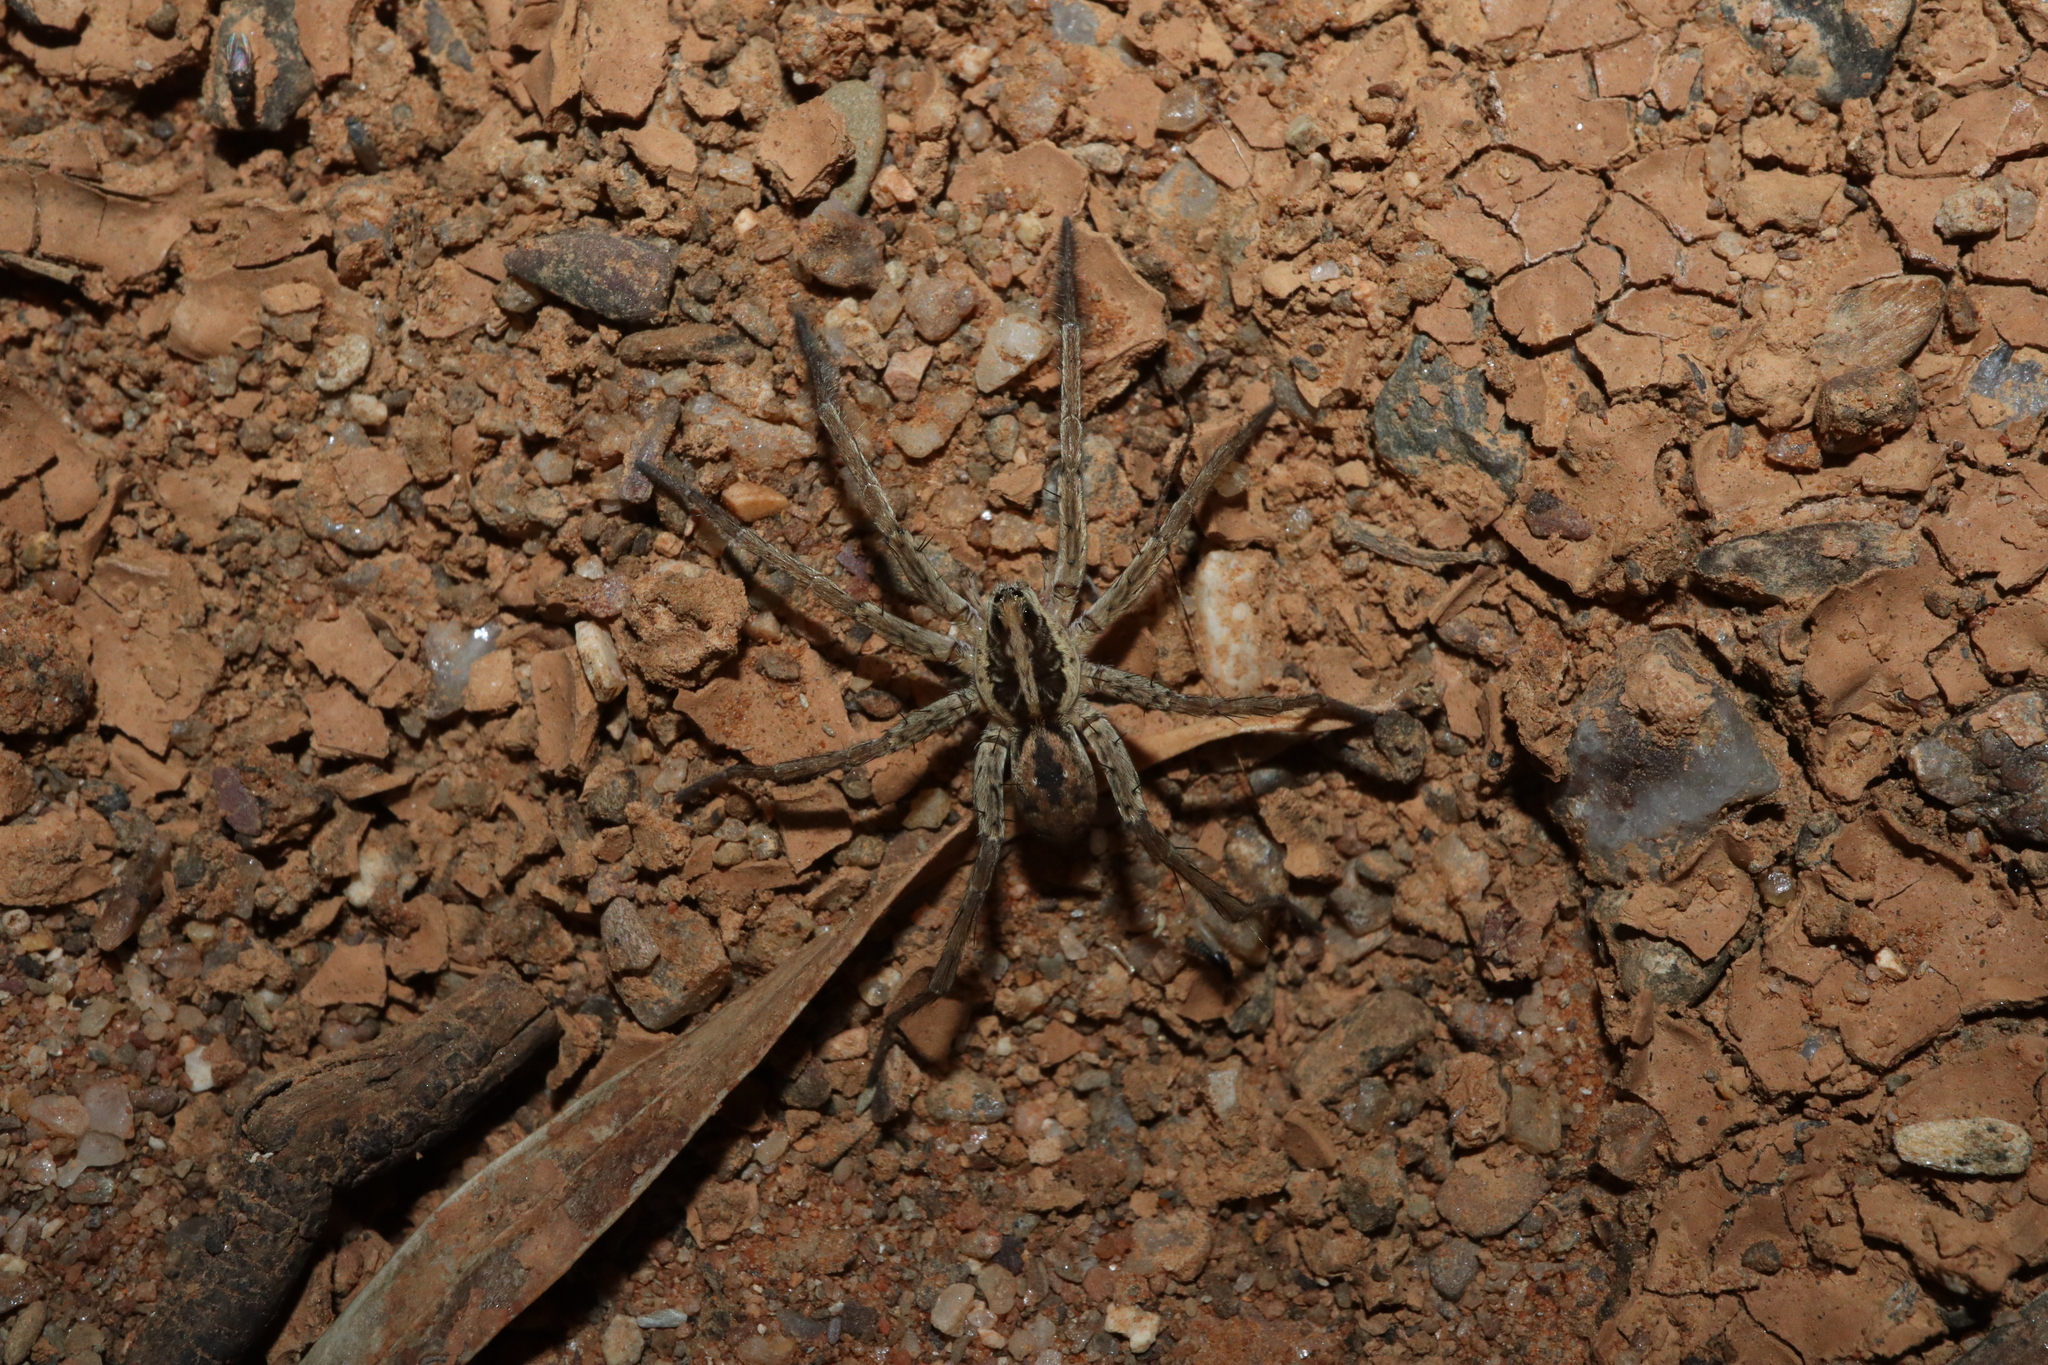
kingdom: Animalia
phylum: Arthropoda
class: Arachnida
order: Araneae
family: Lycosidae
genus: Hogna
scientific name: Hogna crispipes
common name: Wolf spider
